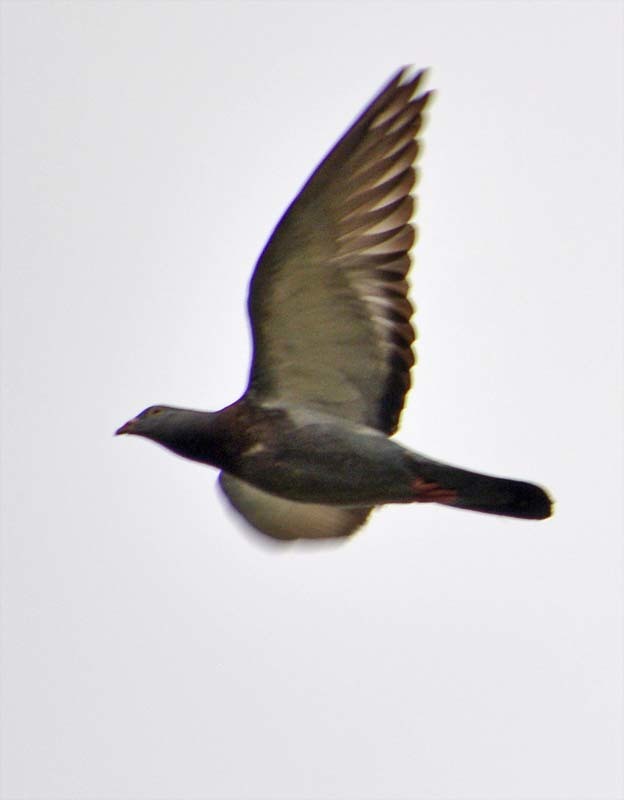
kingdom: Animalia
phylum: Chordata
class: Aves
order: Columbiformes
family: Columbidae
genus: Columba
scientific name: Columba livia
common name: Rock pigeon
